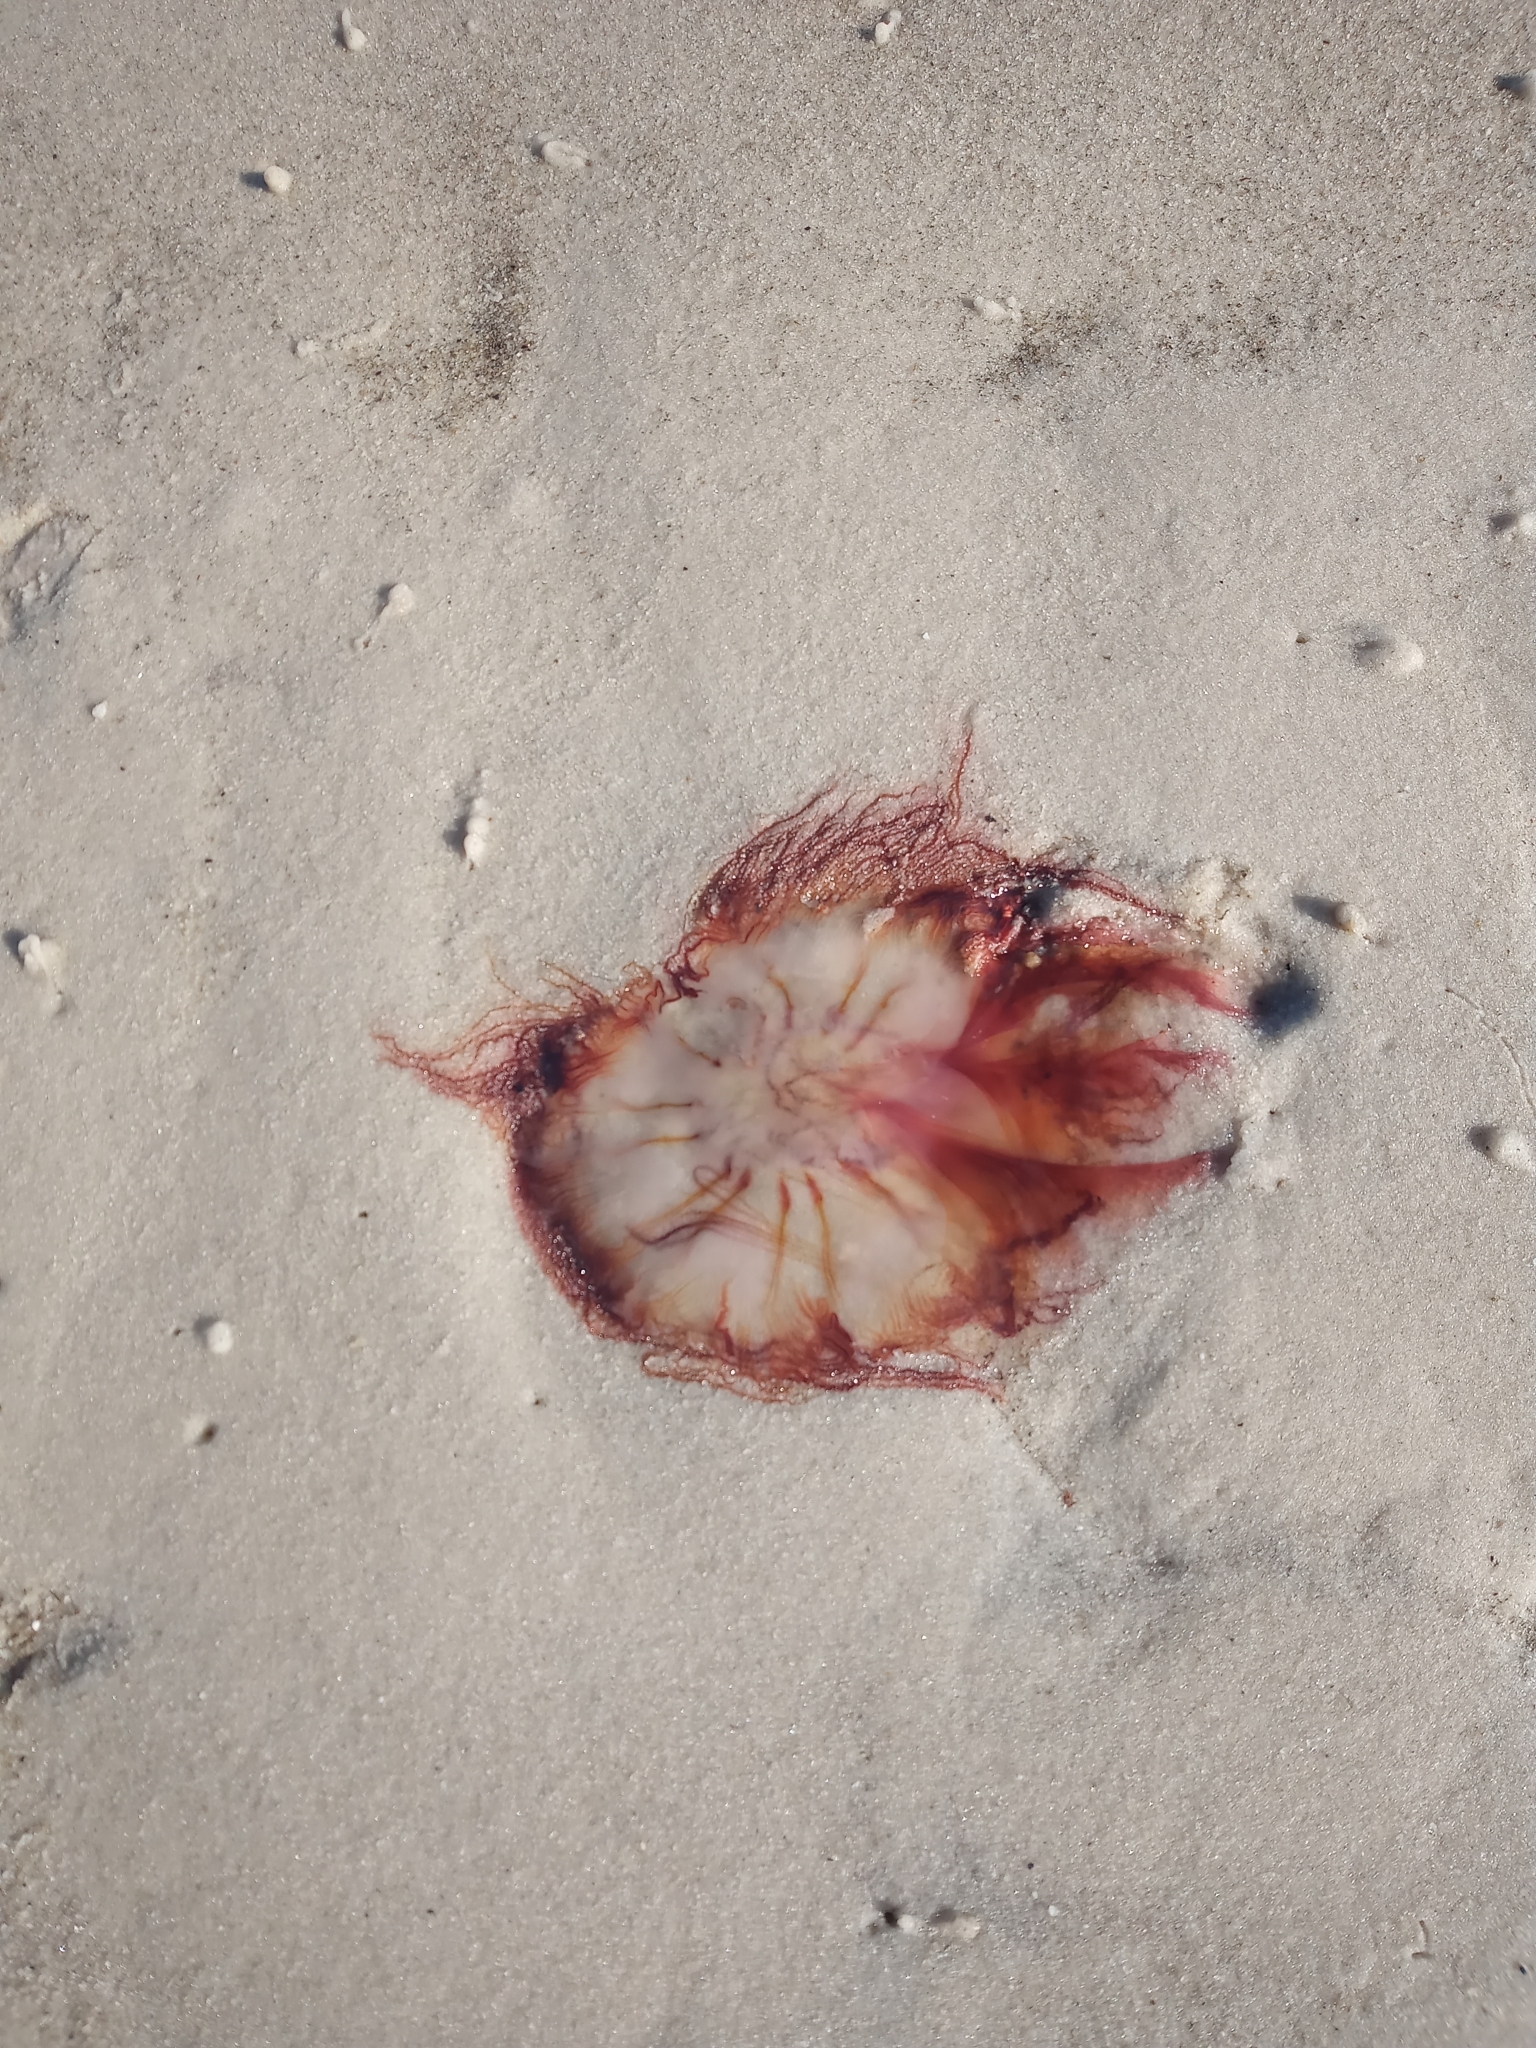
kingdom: Animalia
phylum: Cnidaria
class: Scyphozoa
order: Semaeostomeae
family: Cyaneidae
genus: Cyanea
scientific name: Cyanea versicolor
